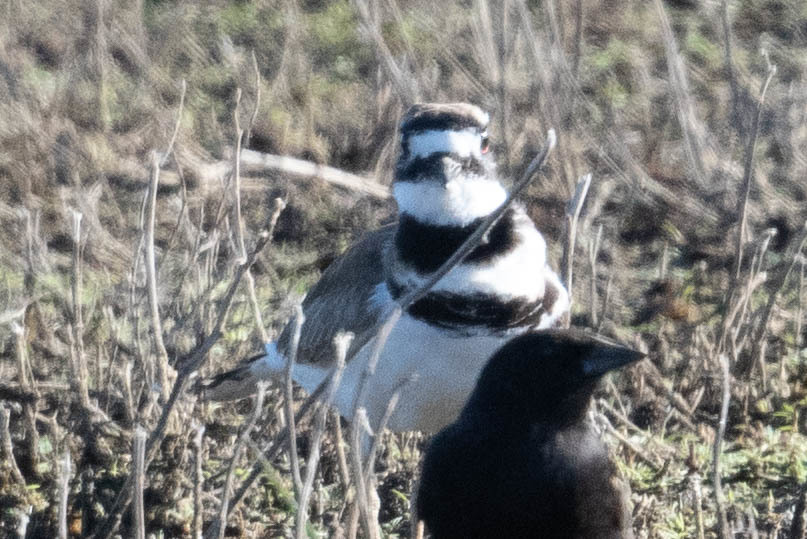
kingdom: Animalia
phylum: Chordata
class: Aves
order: Charadriiformes
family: Charadriidae
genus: Charadrius
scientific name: Charadrius vociferus
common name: Killdeer
